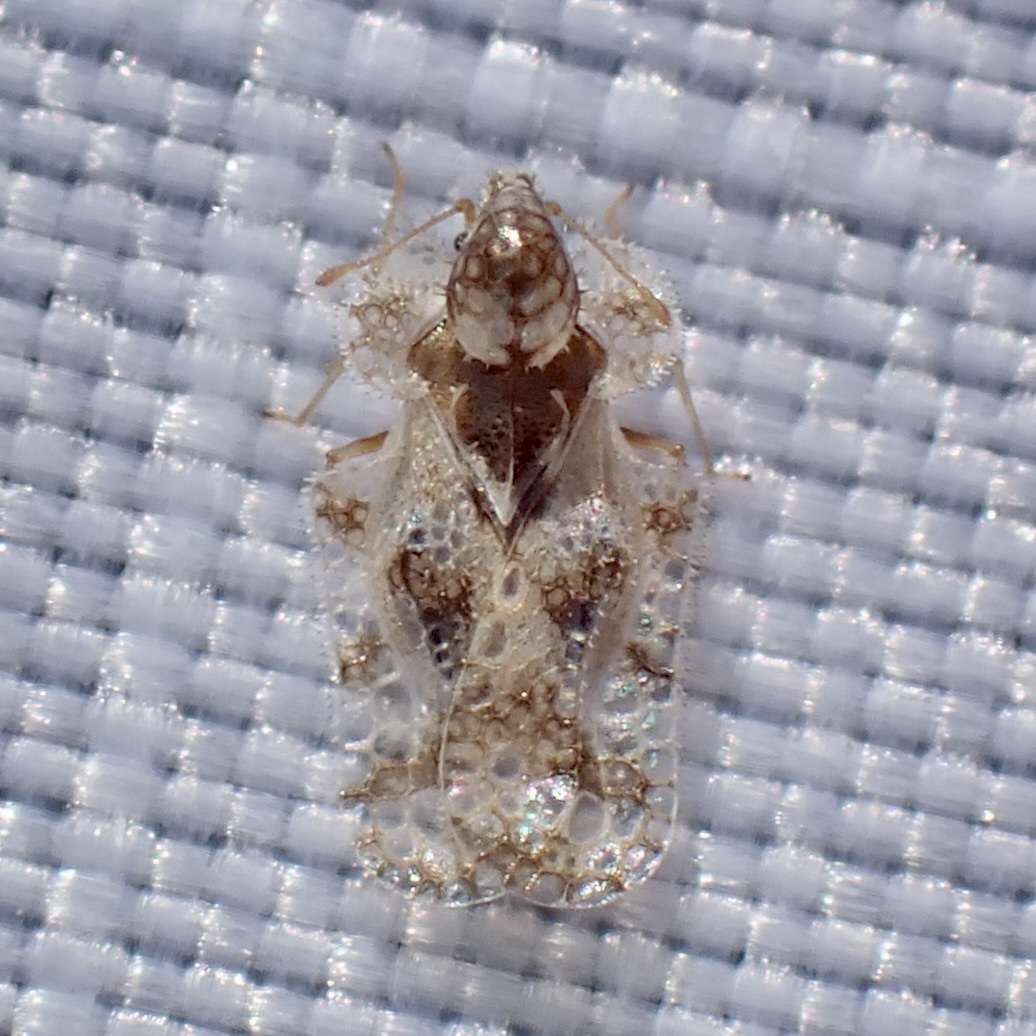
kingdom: Animalia
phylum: Arthropoda
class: Insecta
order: Hemiptera
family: Tingidae
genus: Corythucha
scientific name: Corythucha morrilli
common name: Morrill lace bug
